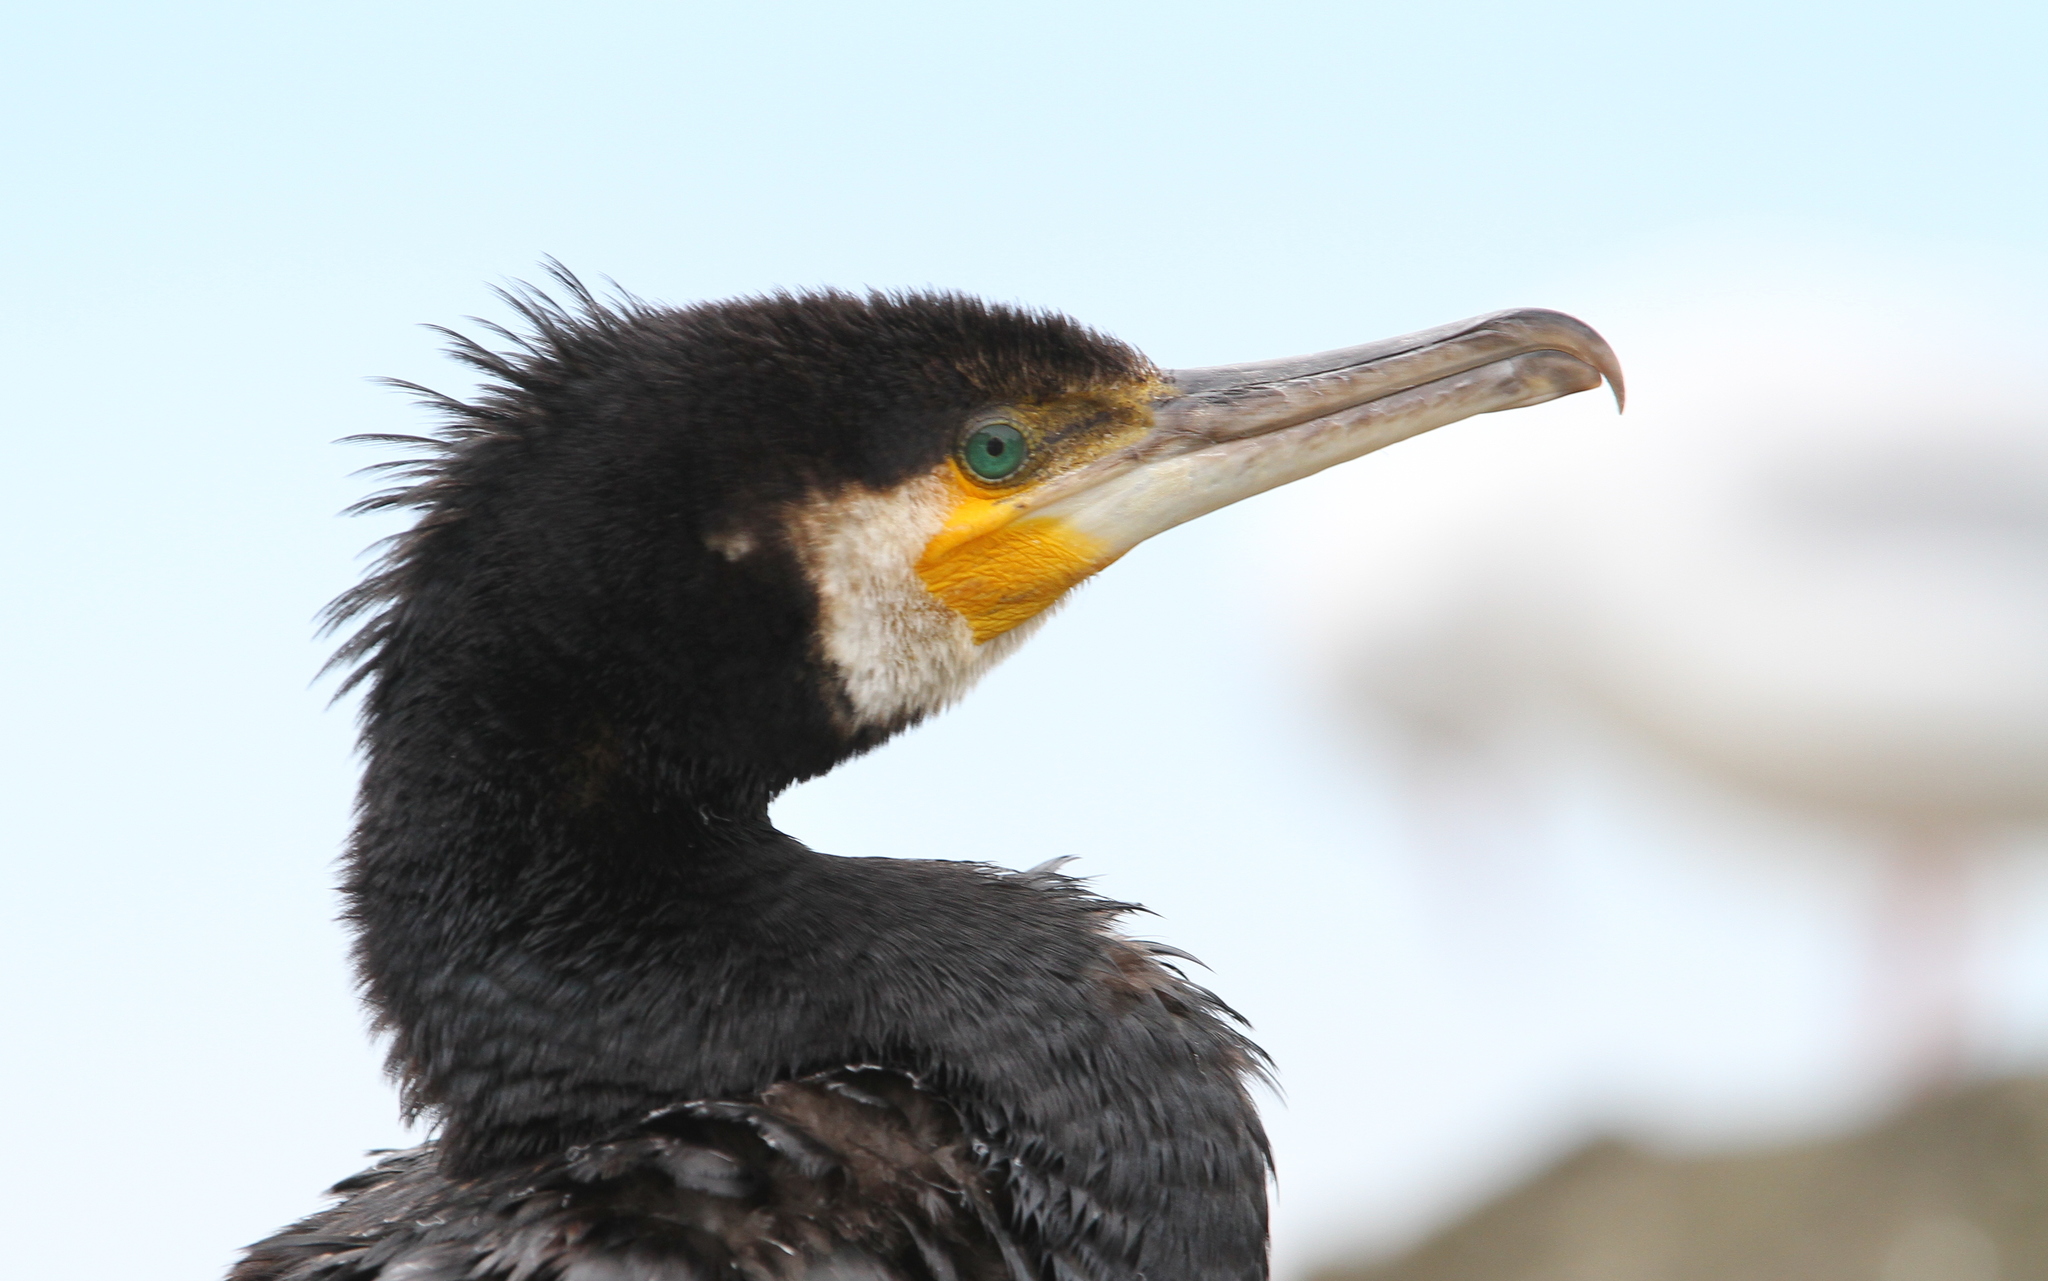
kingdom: Animalia
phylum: Chordata
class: Aves
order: Suliformes
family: Phalacrocoracidae
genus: Phalacrocorax
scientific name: Phalacrocorax carbo
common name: Great cormorant
